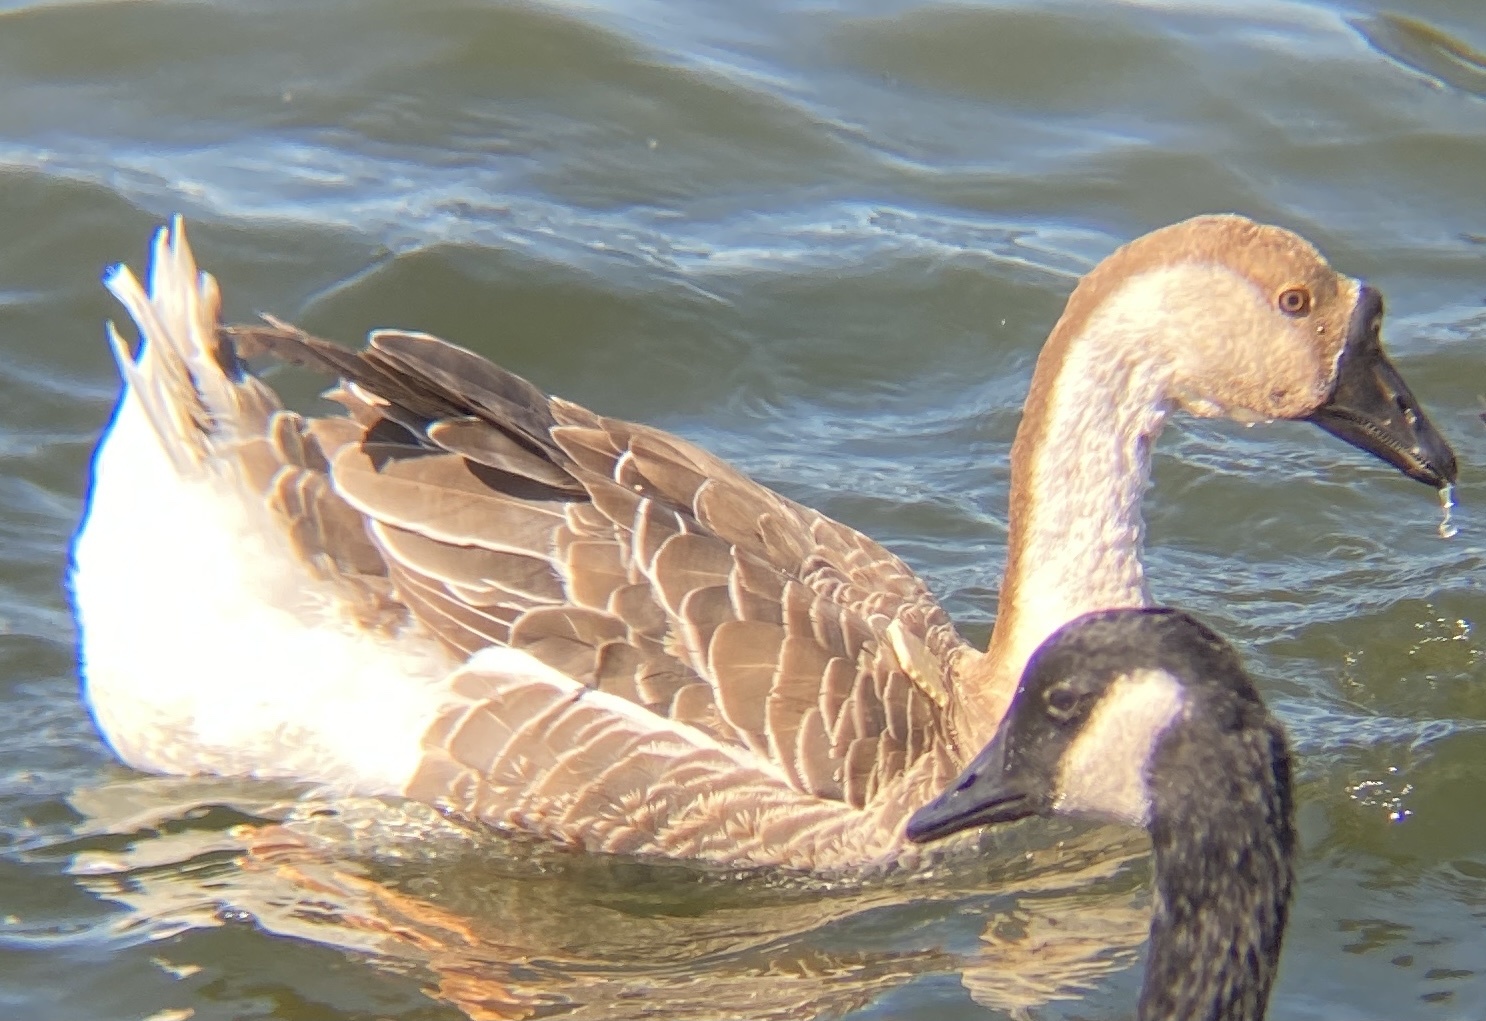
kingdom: Animalia
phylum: Chordata
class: Aves
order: Anseriformes
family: Anatidae
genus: Anser
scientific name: Anser cygnoides
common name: Swan goose
